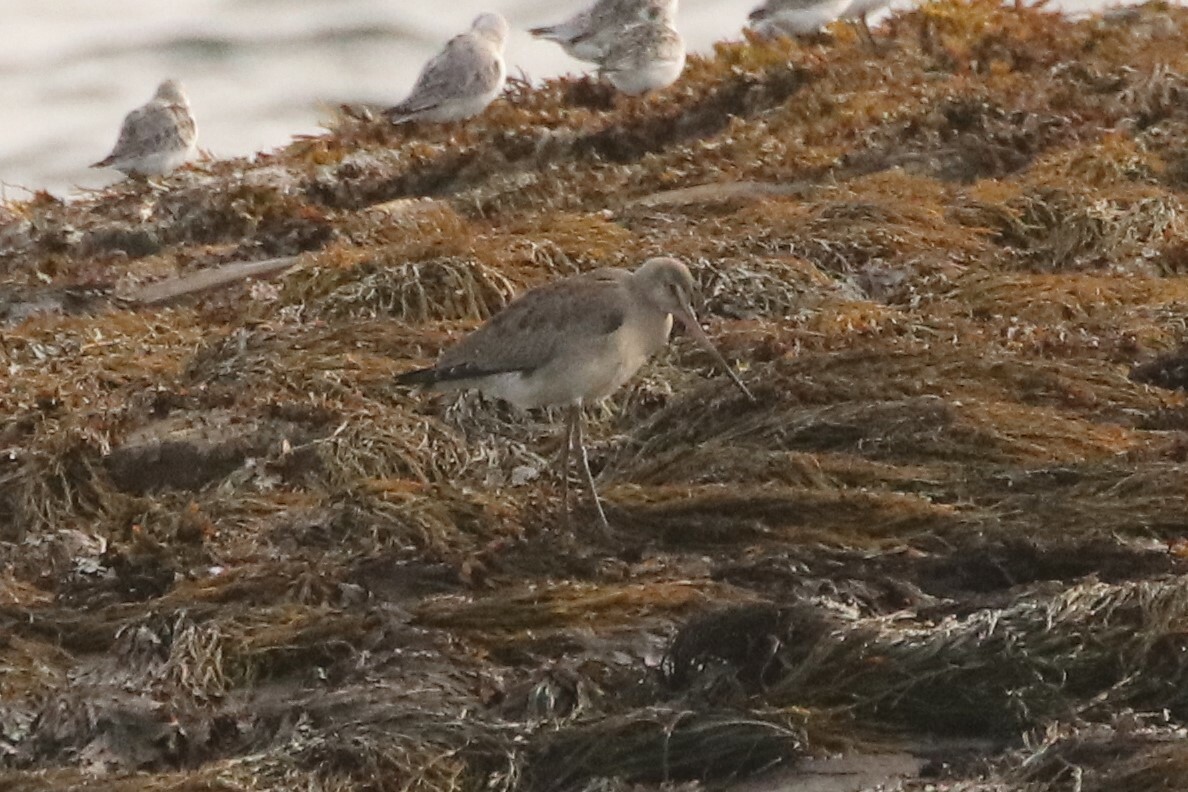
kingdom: Animalia
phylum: Chordata
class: Aves
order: Charadriiformes
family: Scolopacidae
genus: Limosa
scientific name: Limosa haemastica
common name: Hudsonian godwit
